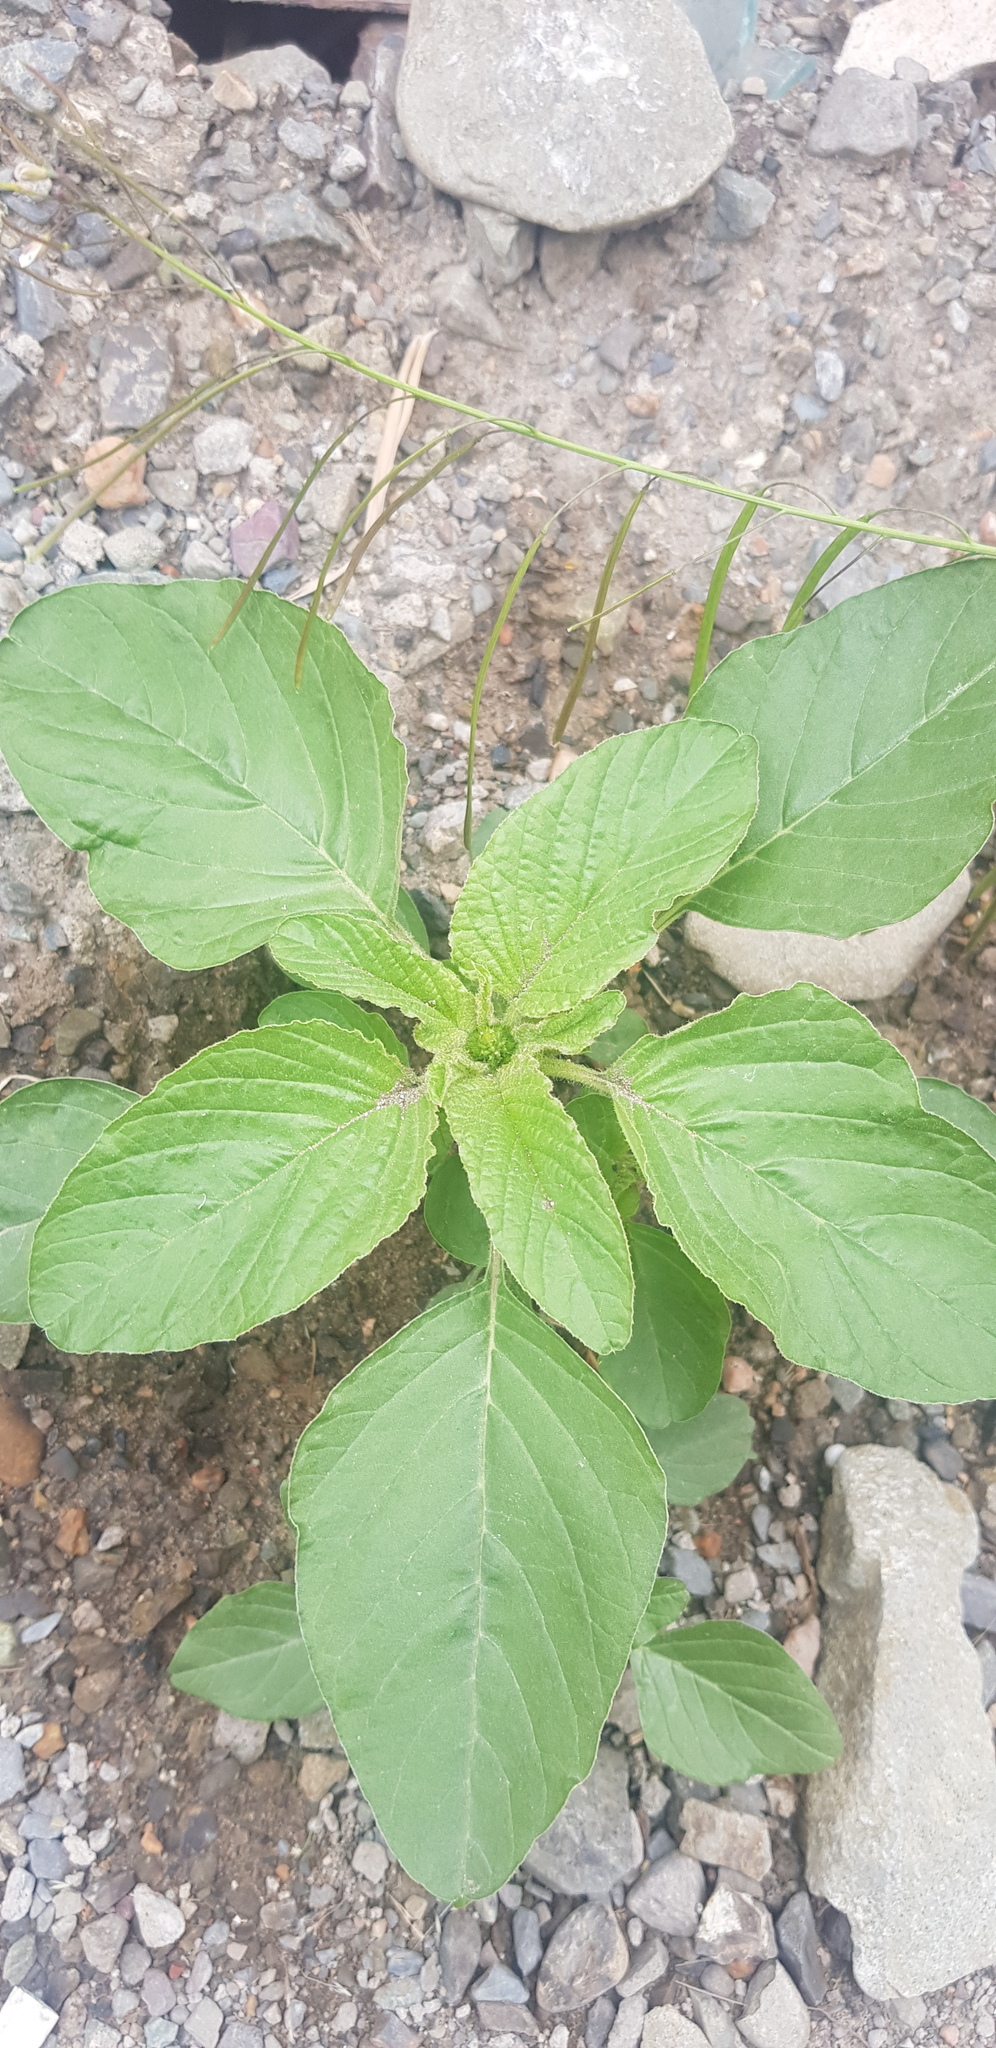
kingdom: Plantae
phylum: Tracheophyta
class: Magnoliopsida
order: Caryophyllales
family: Amaranthaceae
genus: Amaranthus
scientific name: Amaranthus retroflexus
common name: Redroot amaranth
